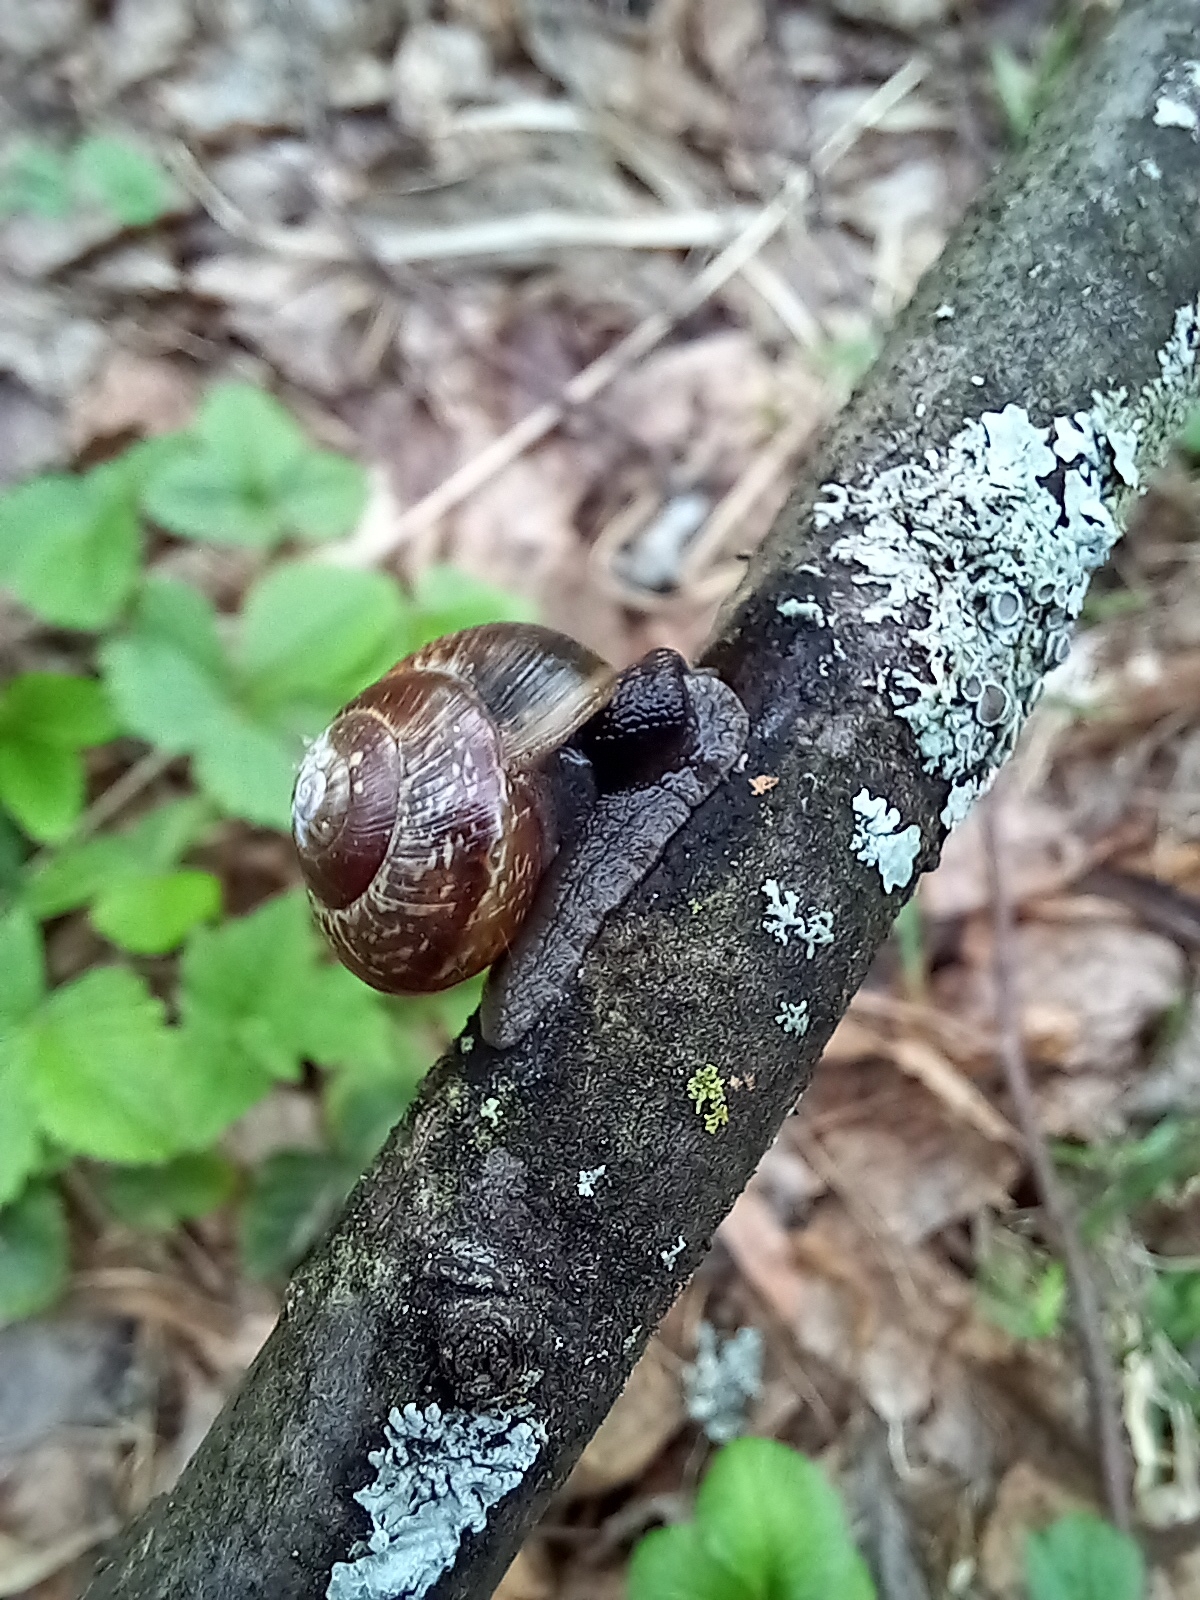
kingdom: Animalia
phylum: Mollusca
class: Gastropoda
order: Stylommatophora
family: Helicidae
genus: Arianta
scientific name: Arianta arbustorum
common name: Copse snail
